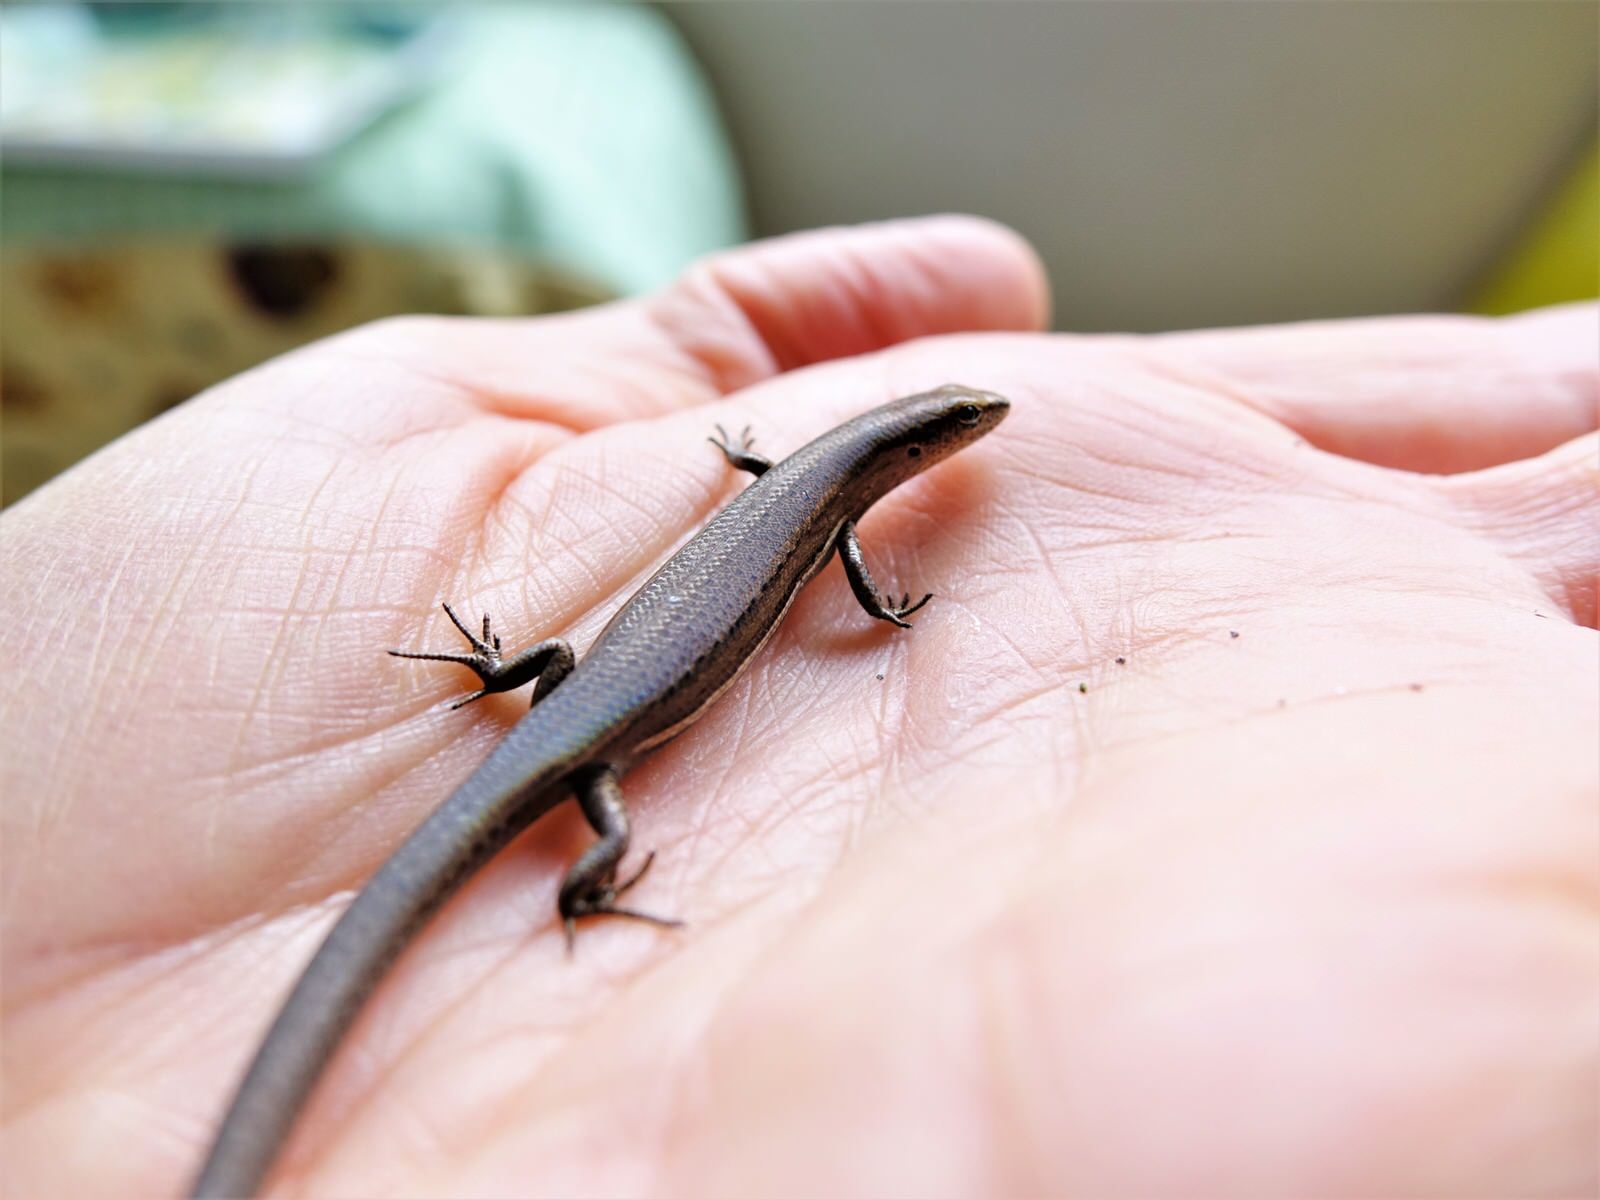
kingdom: Animalia
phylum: Chordata
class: Squamata
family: Scincidae
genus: Lampropholis
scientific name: Lampropholis delicata
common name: Plague skink
